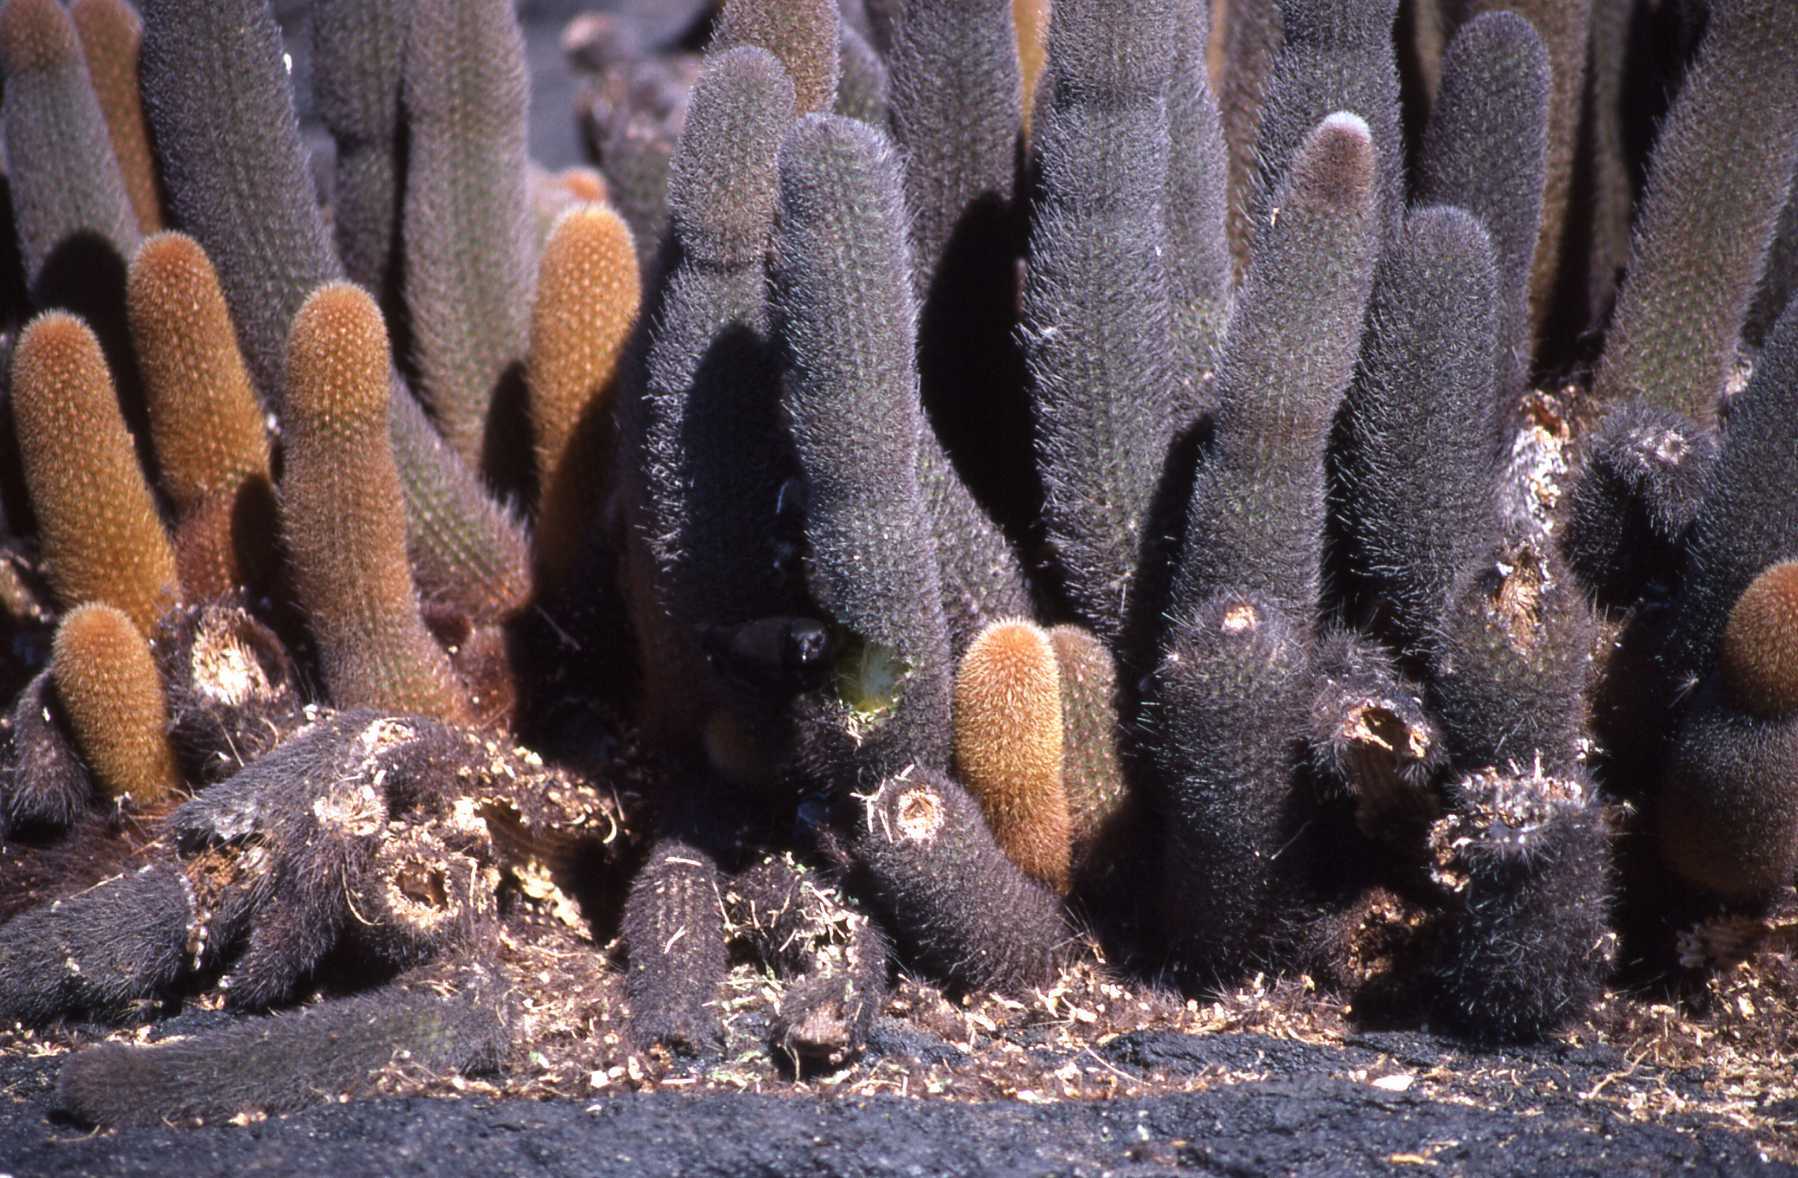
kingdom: Plantae
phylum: Tracheophyta
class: Magnoliopsida
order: Caryophyllales
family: Cactaceae
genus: Brachycereus
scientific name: Brachycereus nesioticus
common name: Lava cactus
